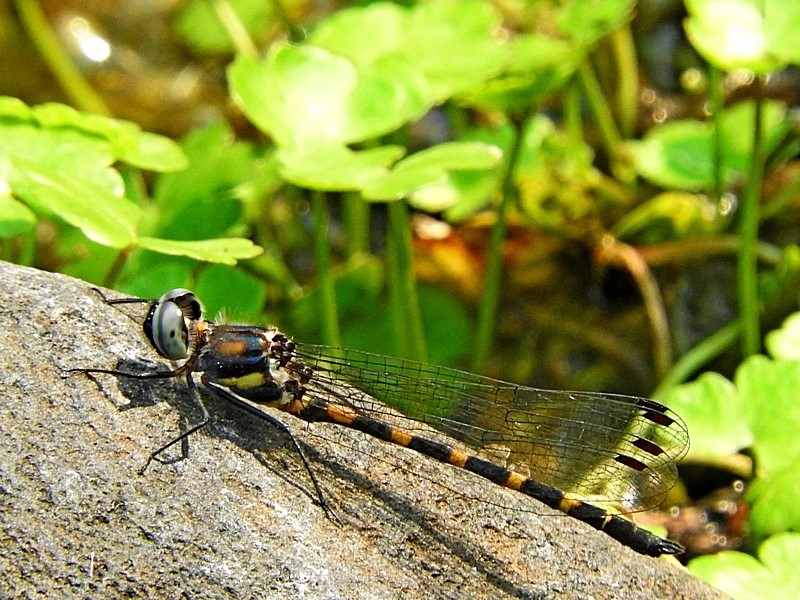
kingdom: Animalia
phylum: Arthropoda
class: Insecta
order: Odonata
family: Corduliidae
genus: Cordulephya
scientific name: Cordulephya pygmaea
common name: Common shutwing
